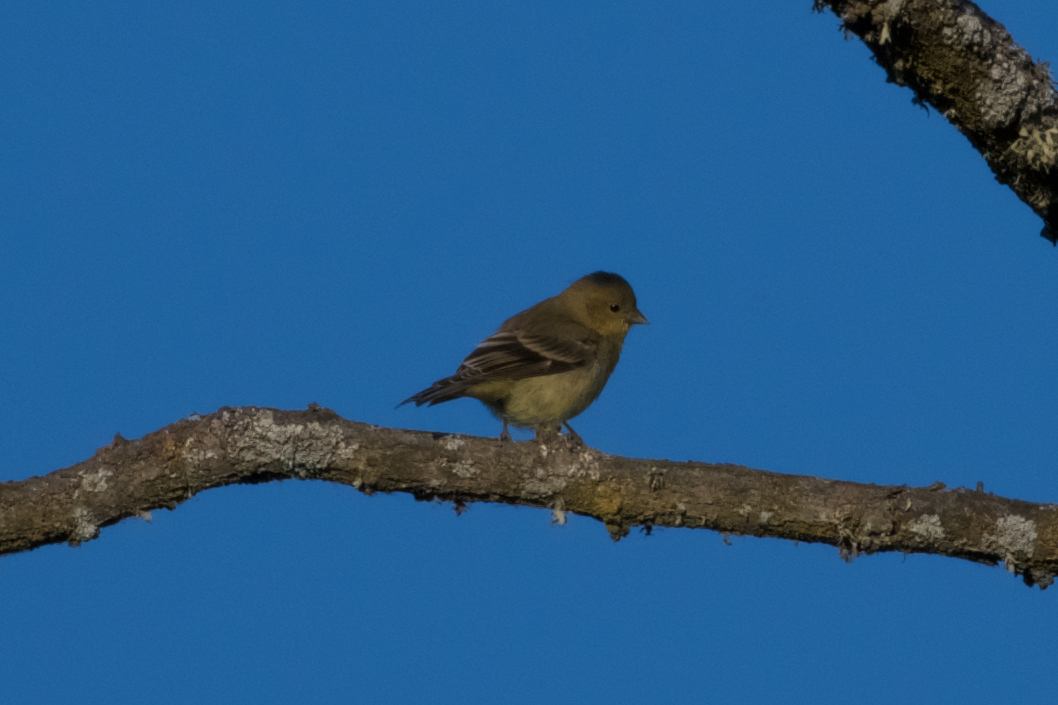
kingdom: Animalia
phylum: Chordata
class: Aves
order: Passeriformes
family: Fringillidae
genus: Spinus
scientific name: Spinus psaltria
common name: Lesser goldfinch
